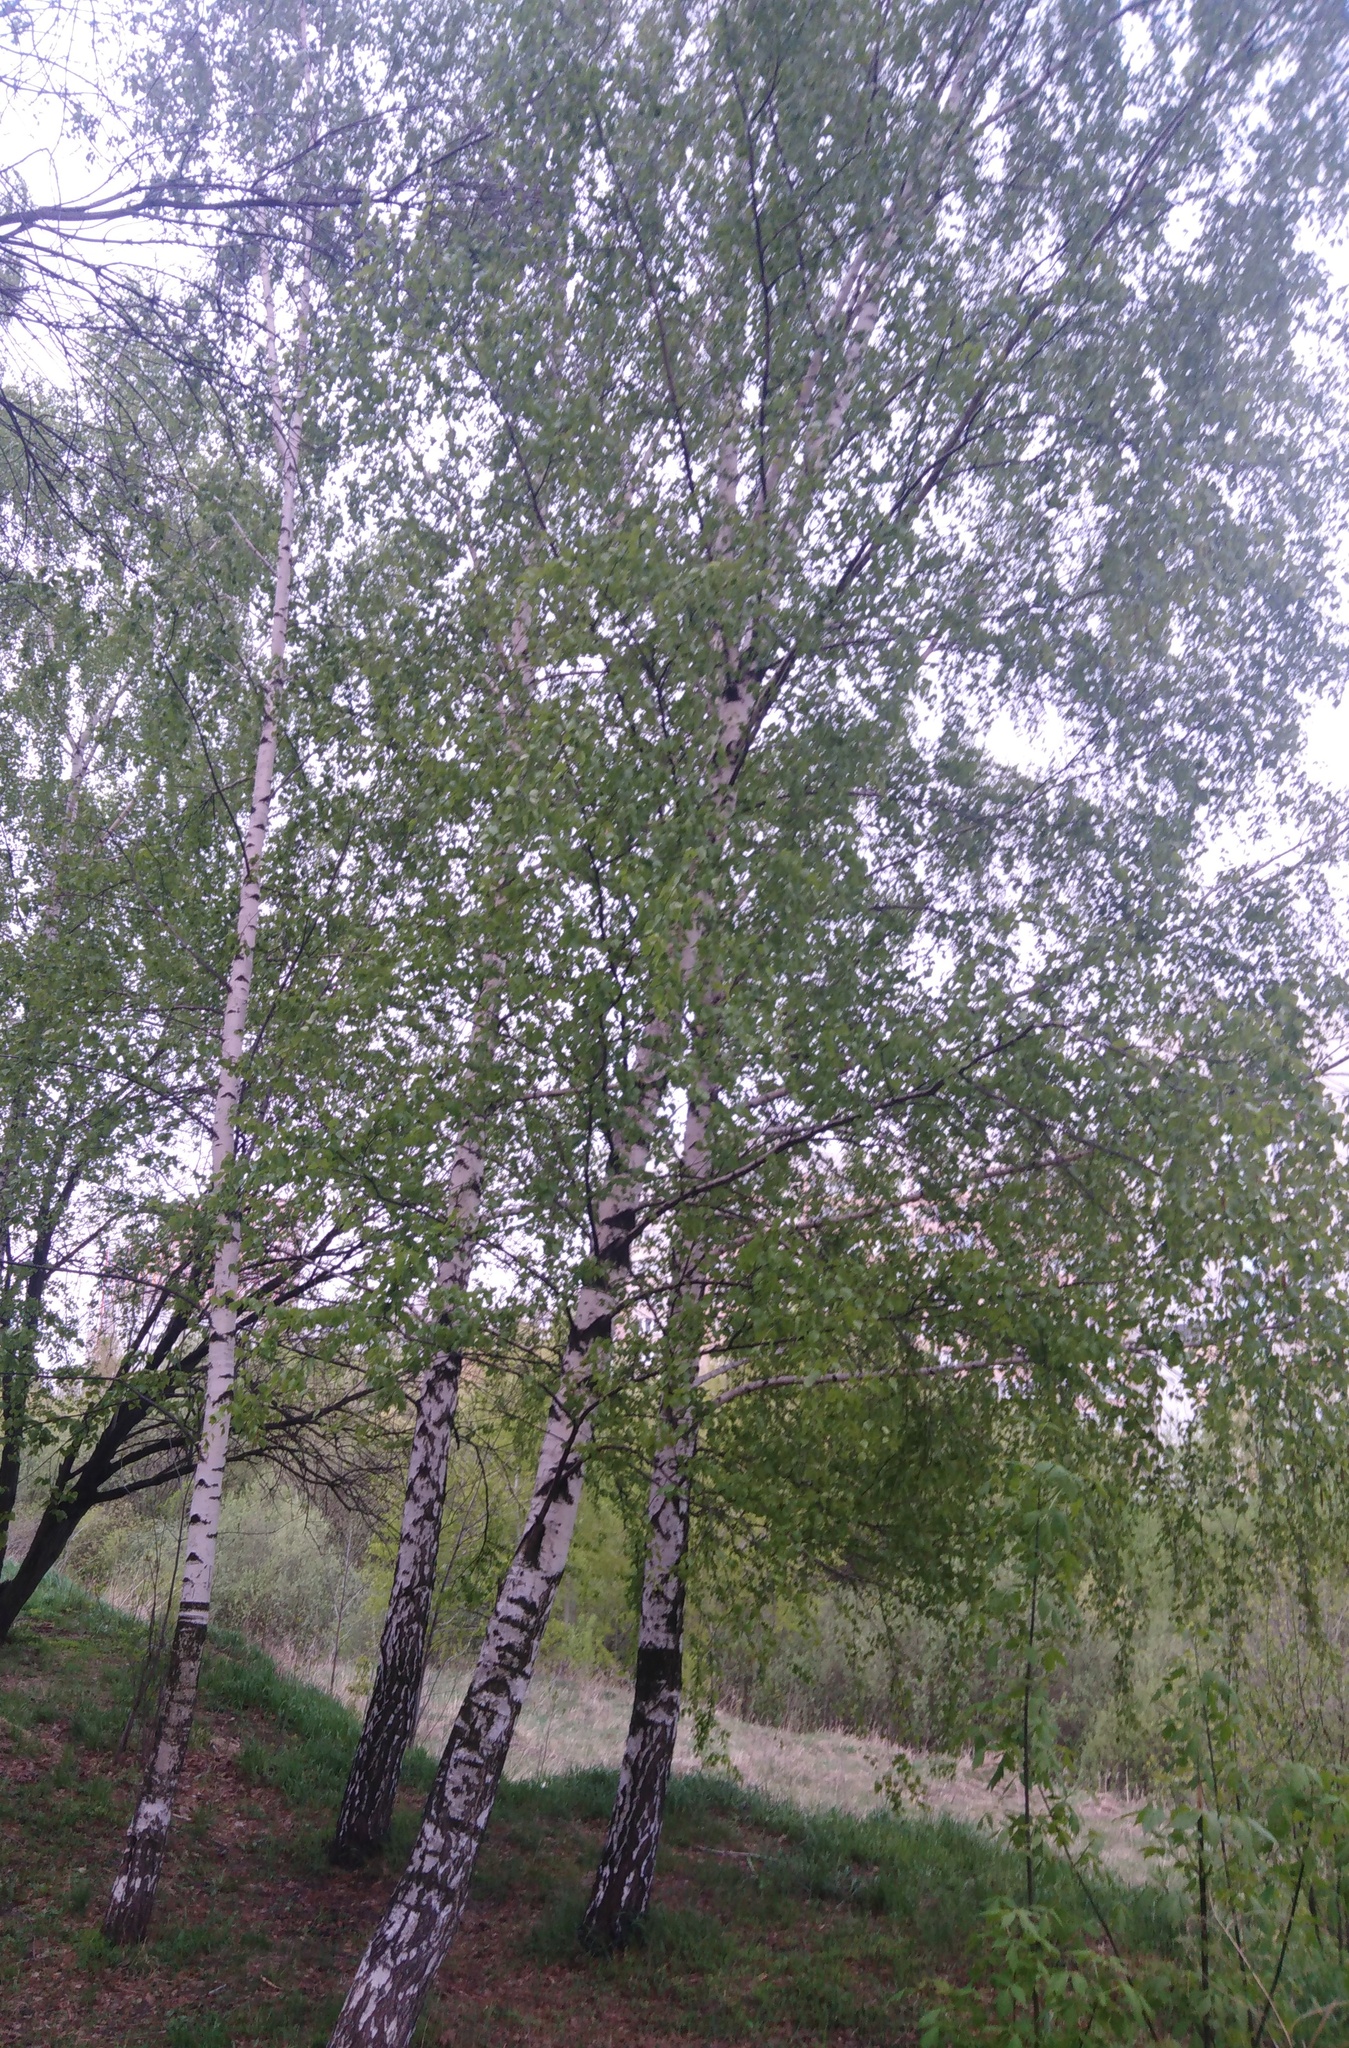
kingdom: Plantae
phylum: Tracheophyta
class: Magnoliopsida
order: Fagales
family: Betulaceae
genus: Betula
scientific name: Betula pendula
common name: Silver birch
